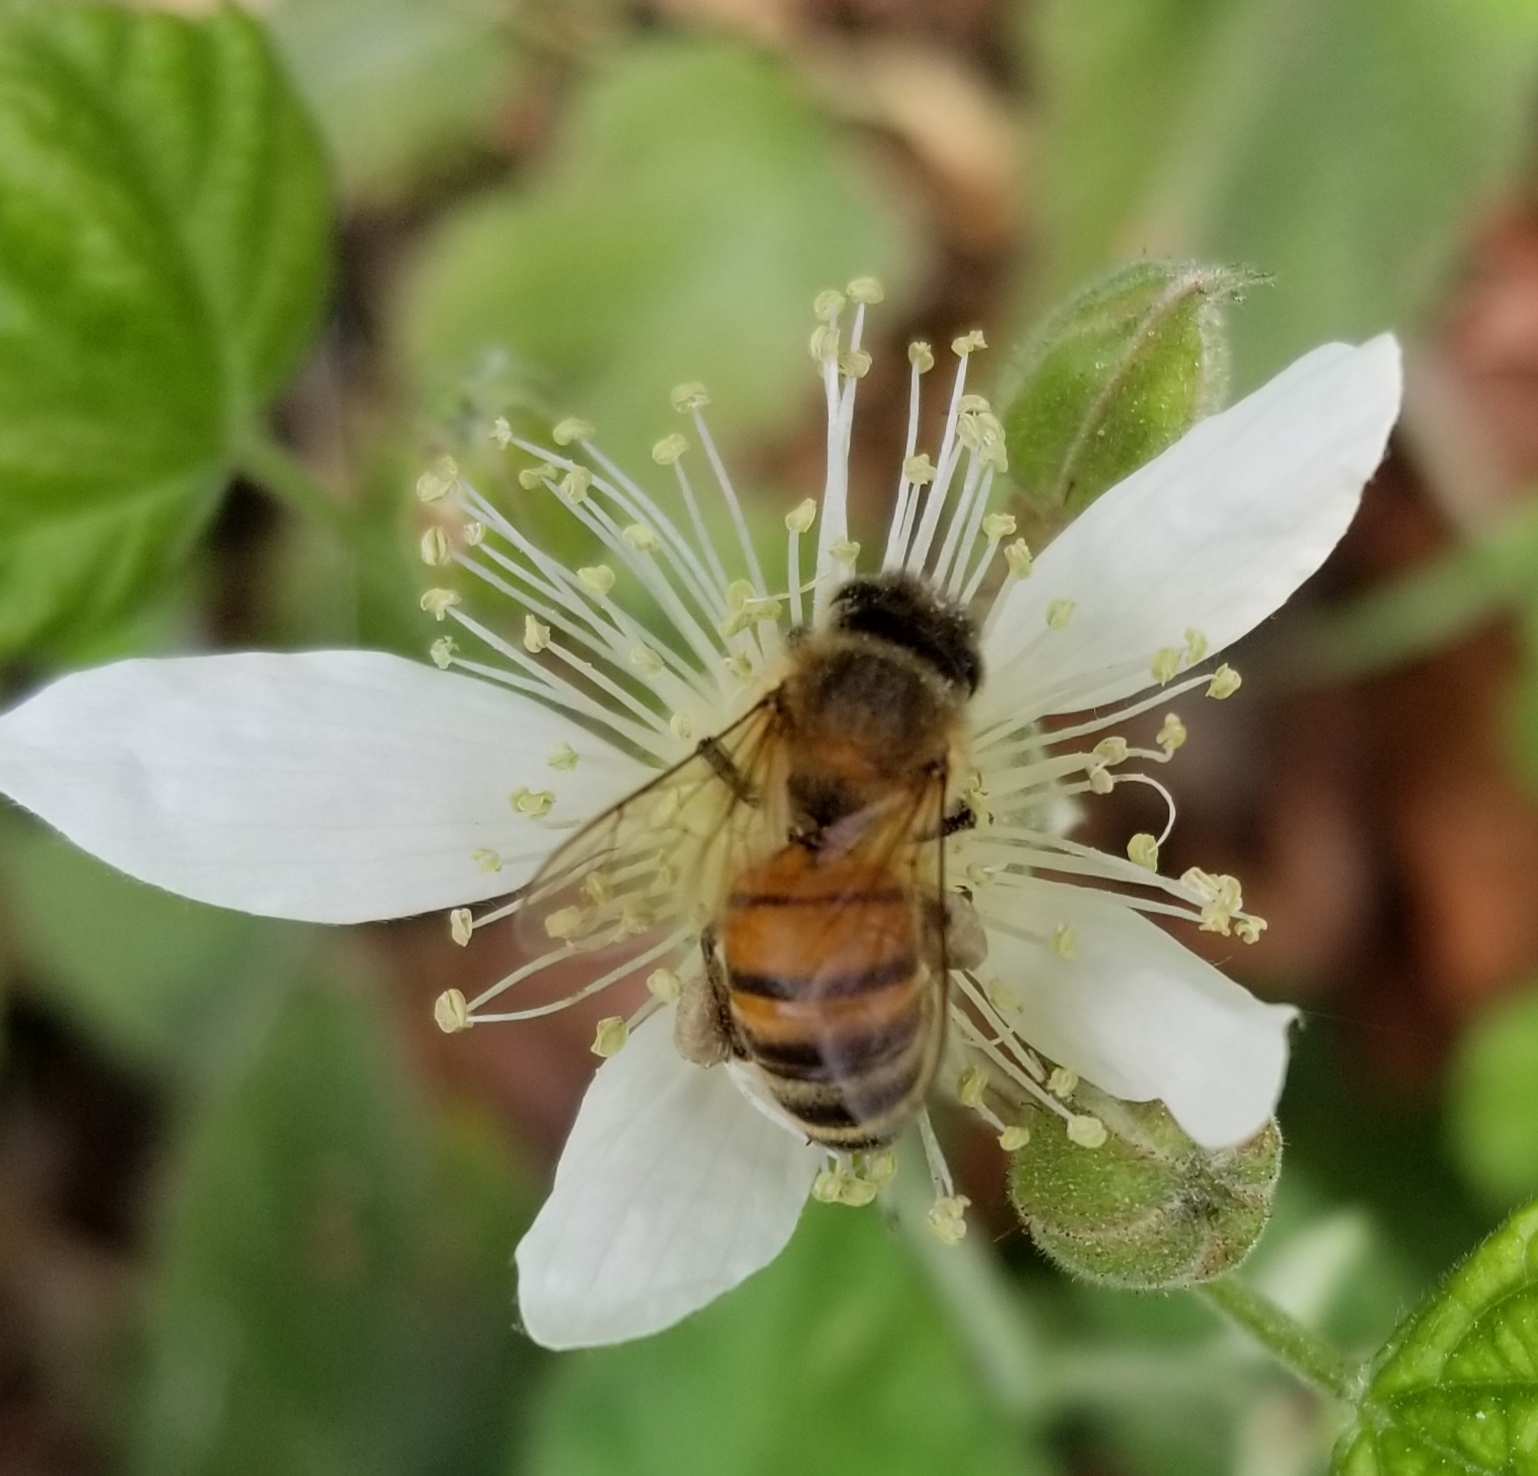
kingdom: Animalia
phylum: Arthropoda
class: Insecta
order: Hymenoptera
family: Apidae
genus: Apis
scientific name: Apis mellifera
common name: Honey bee
